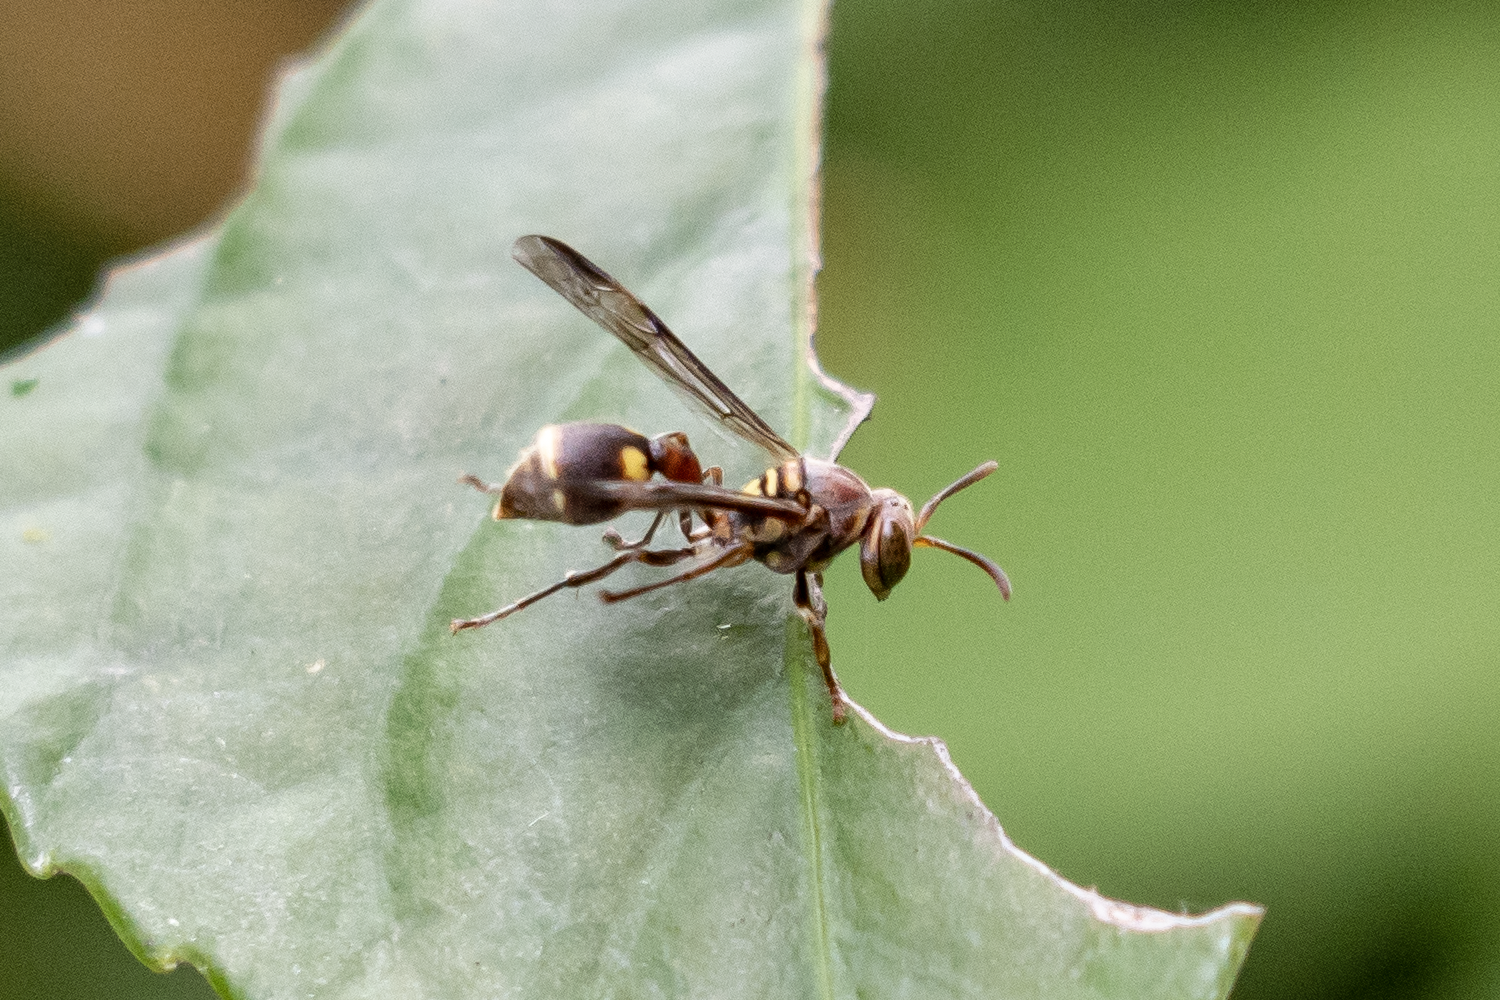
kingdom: Animalia
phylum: Arthropoda
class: Insecta
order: Hymenoptera
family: Vespidae
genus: Ropalidia
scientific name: Ropalidia stigma
